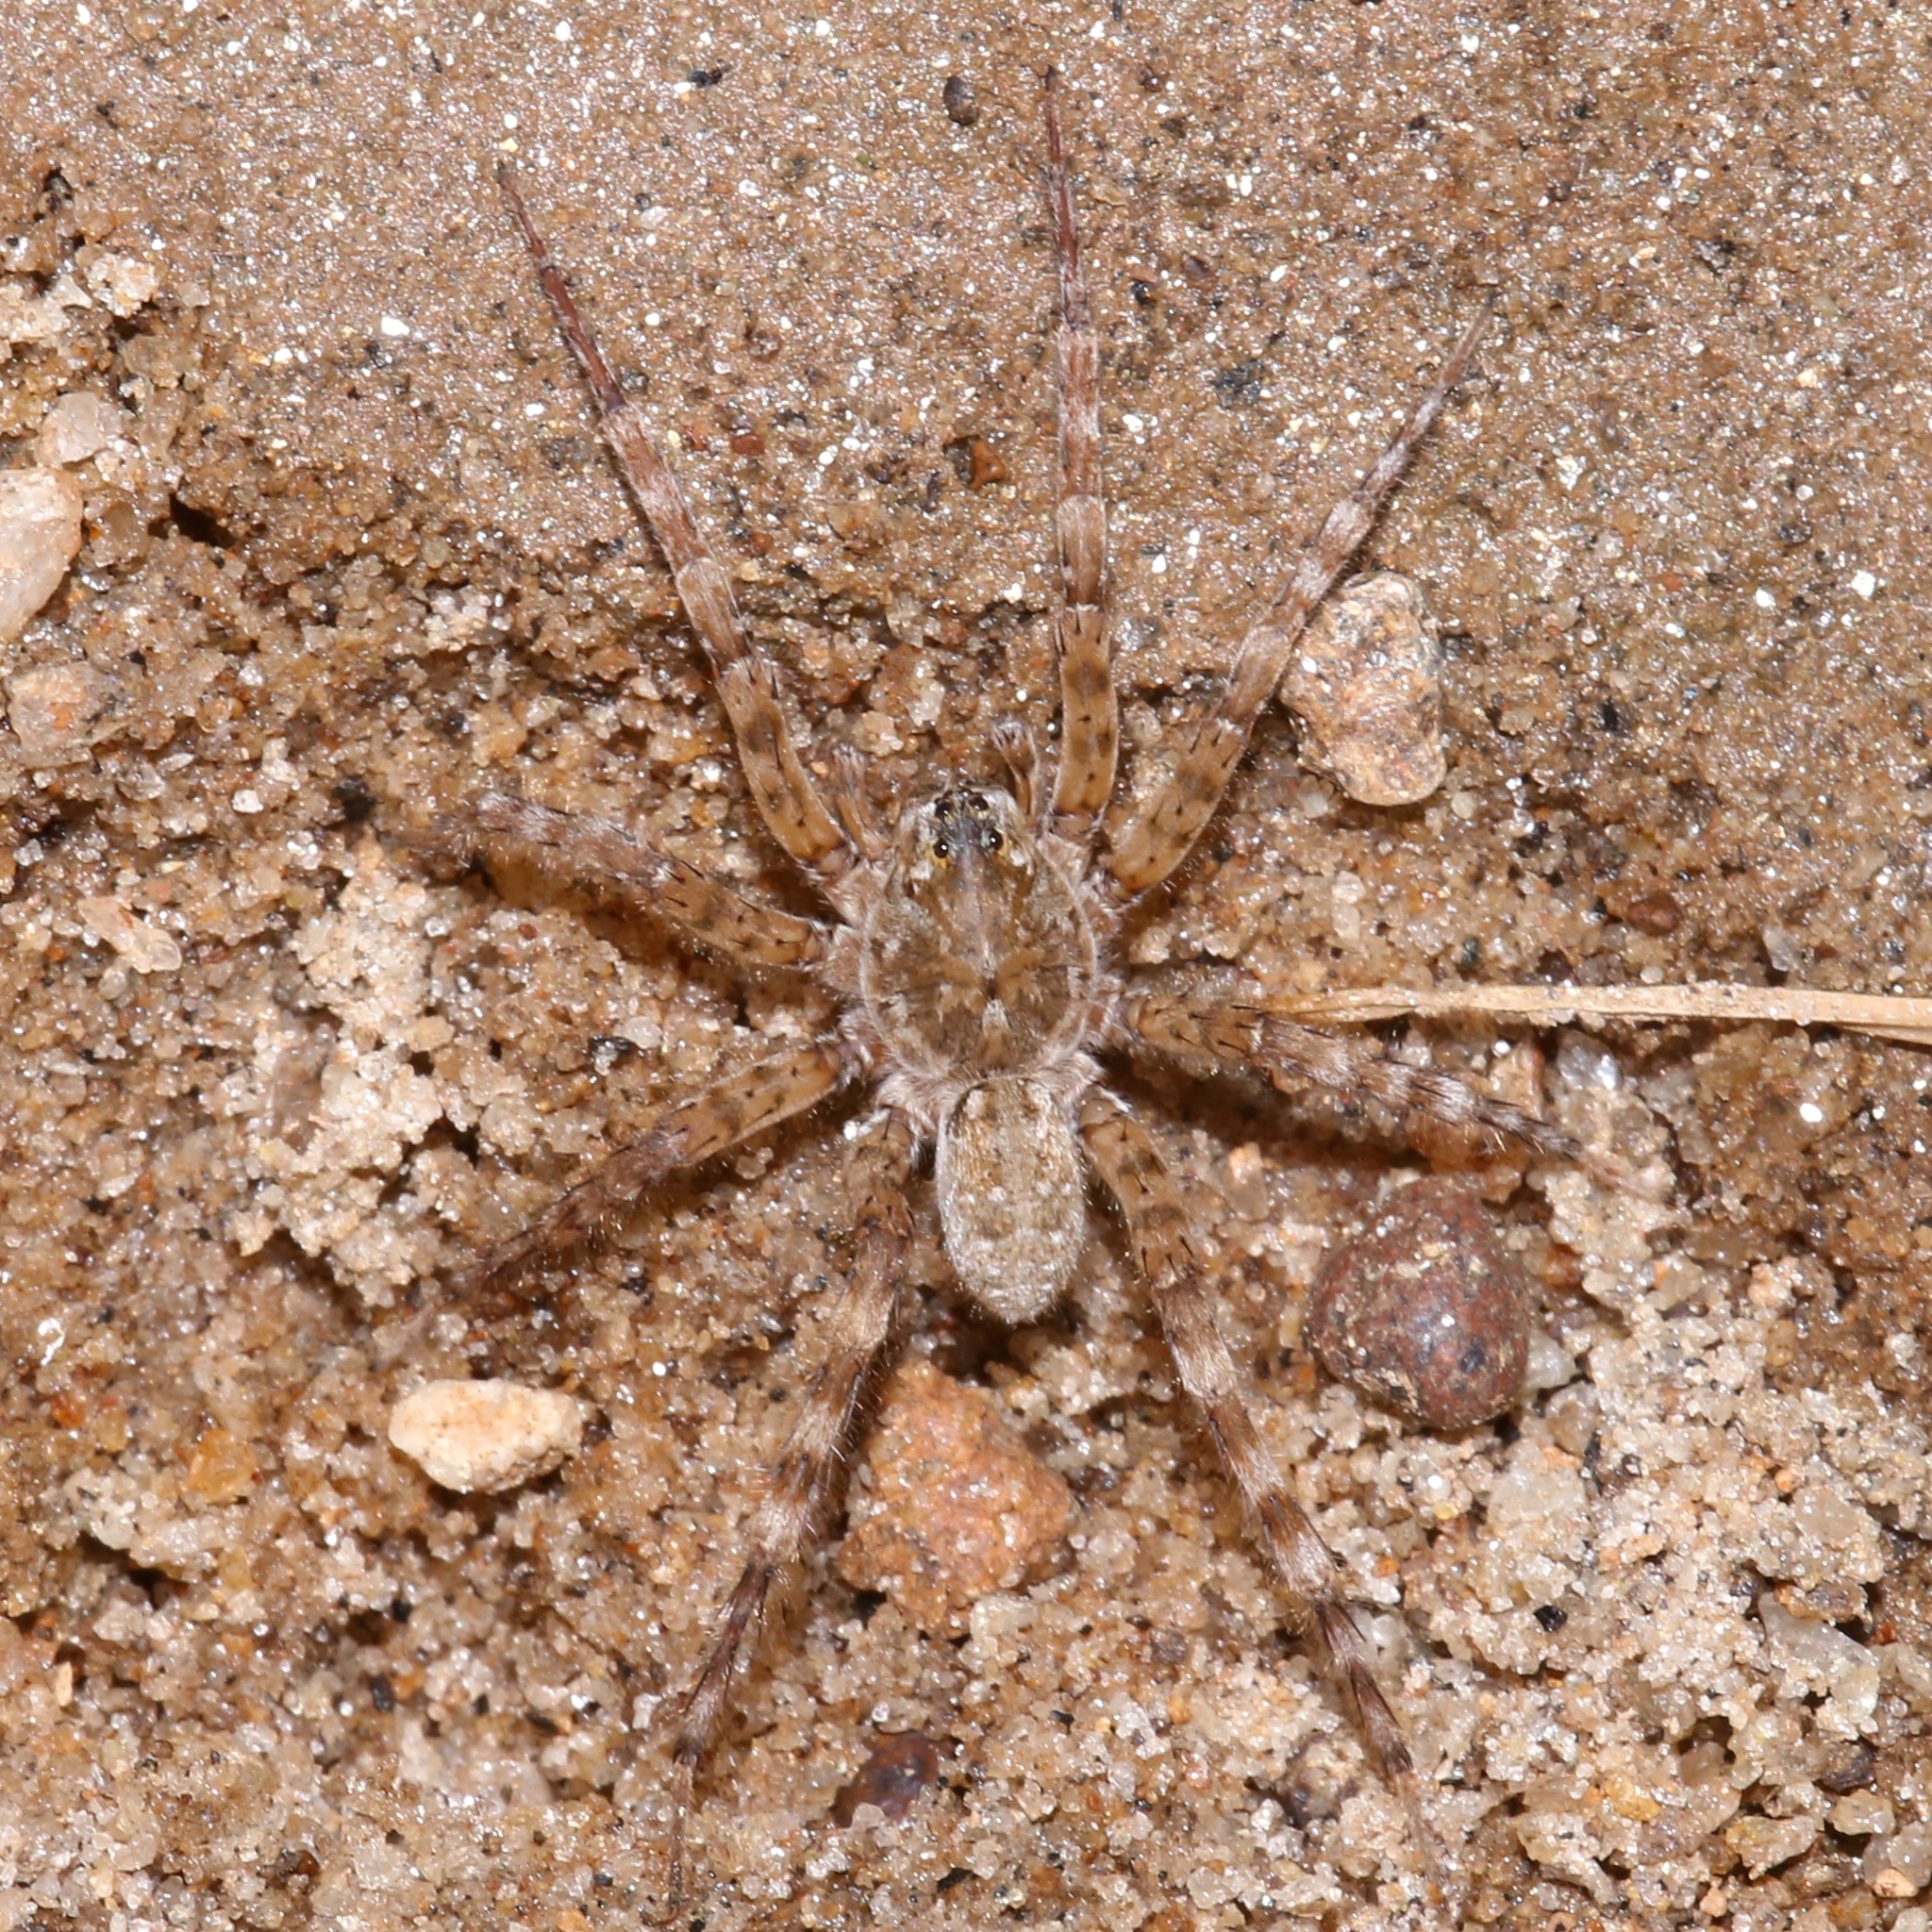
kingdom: Animalia
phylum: Arthropoda
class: Arachnida
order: Araneae
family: Lycosidae
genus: Arctosa
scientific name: Arctosa littoralis
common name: Wolf spiders
